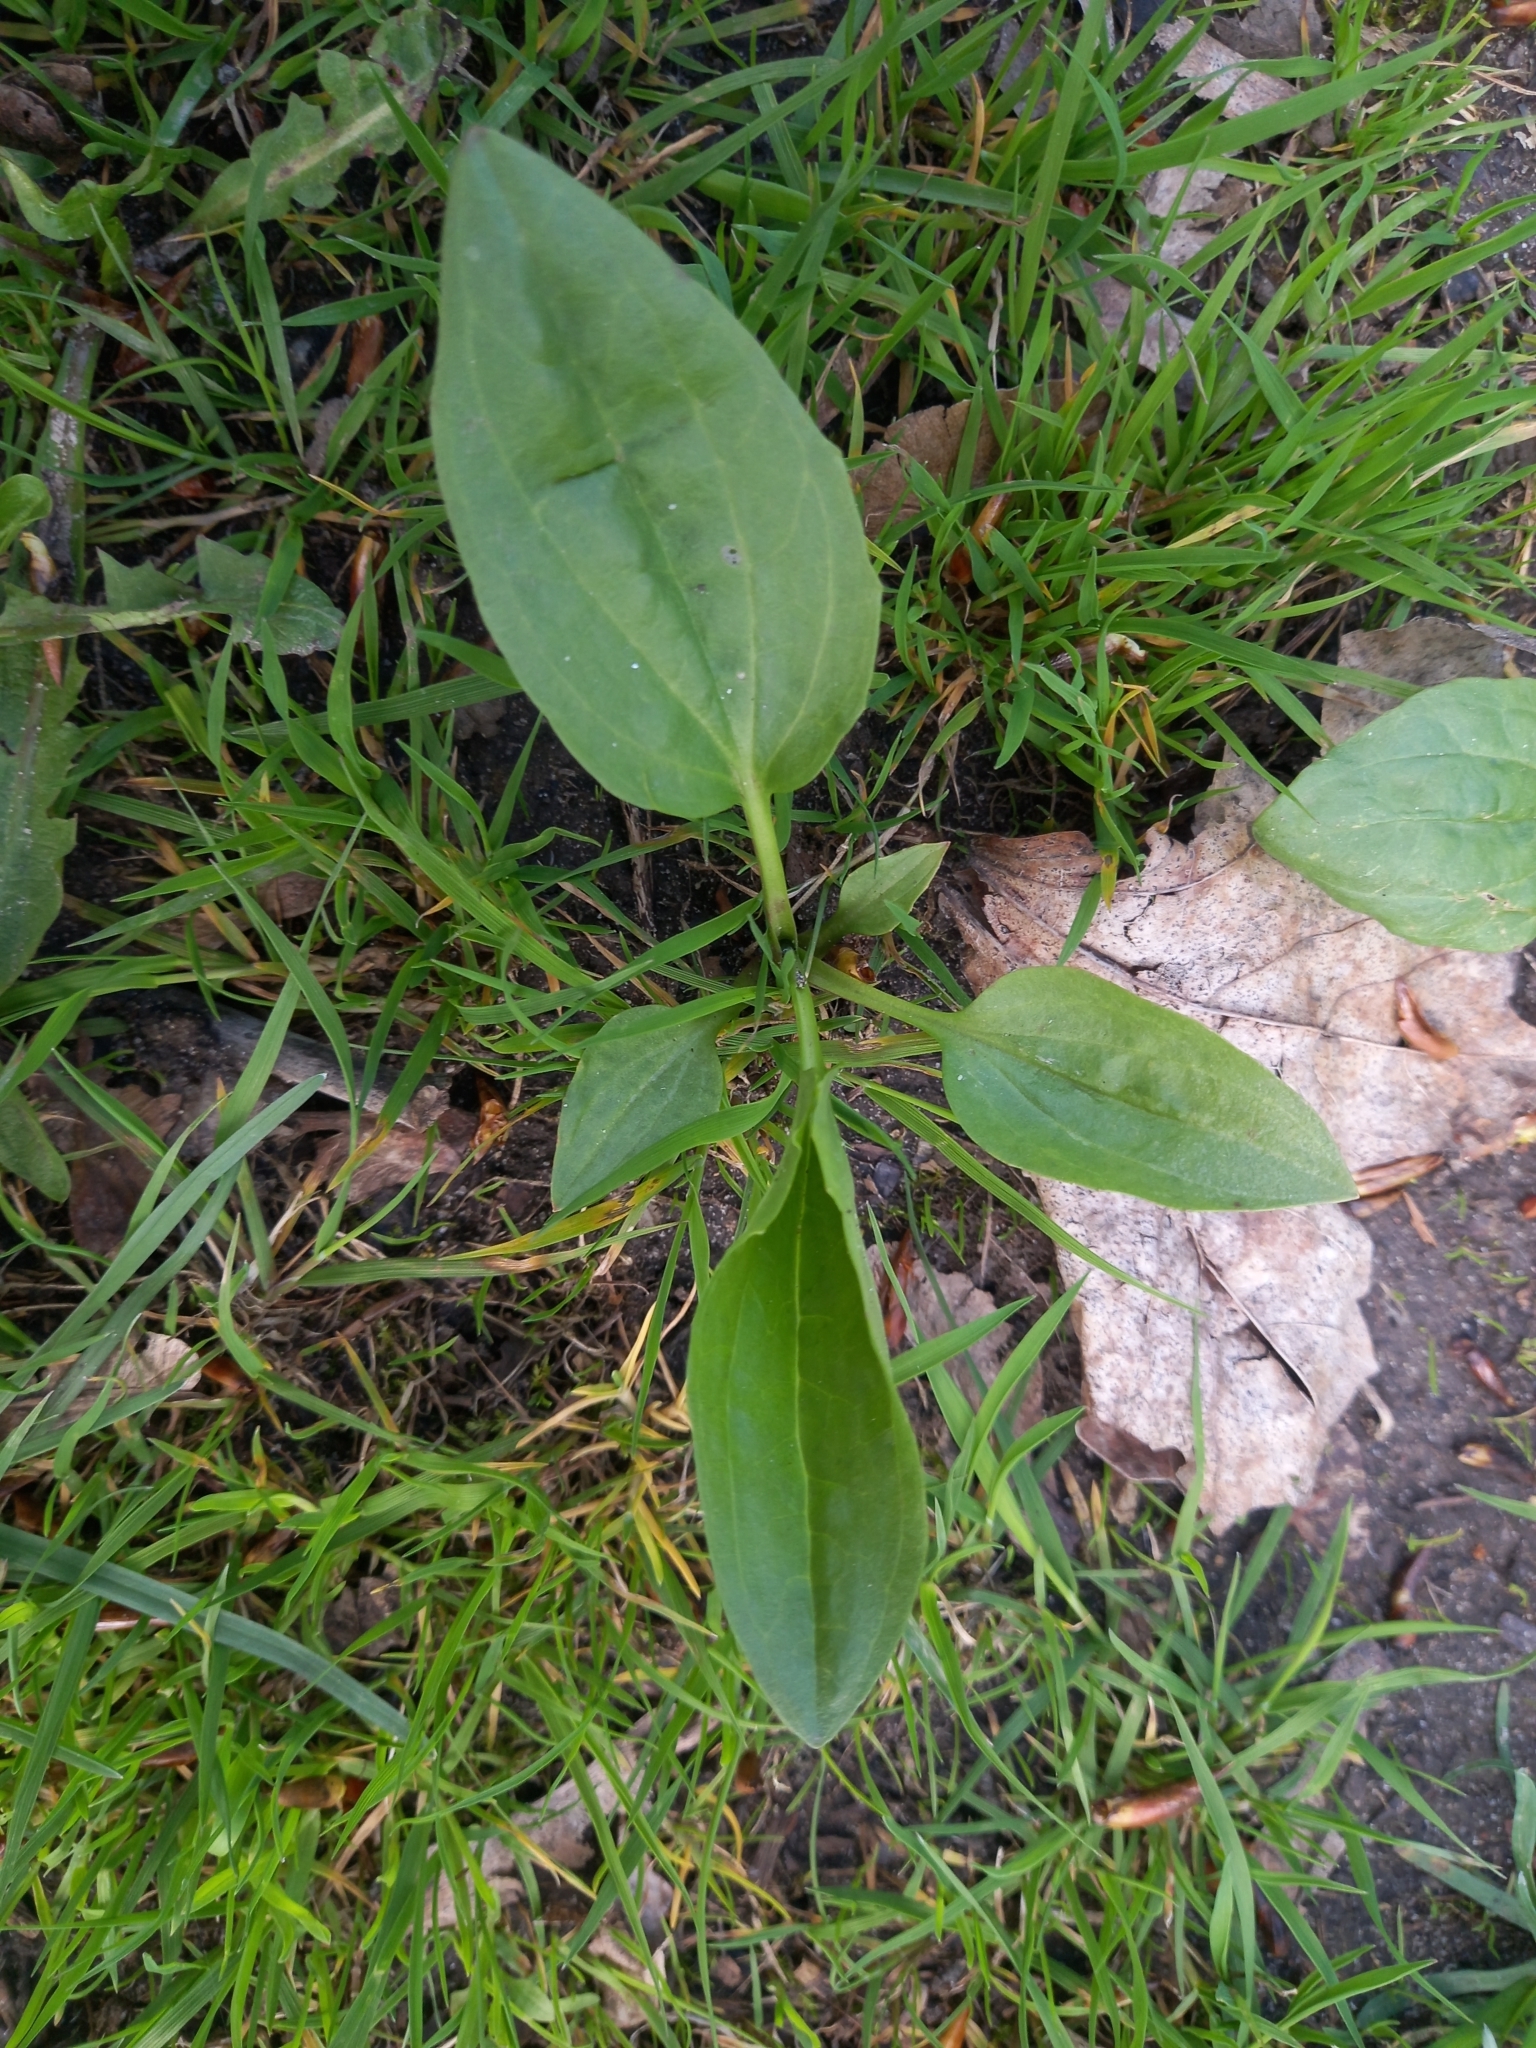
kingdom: Plantae
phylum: Tracheophyta
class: Magnoliopsida
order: Lamiales
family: Plantaginaceae
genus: Plantago
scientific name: Plantago major
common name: Common plantain
